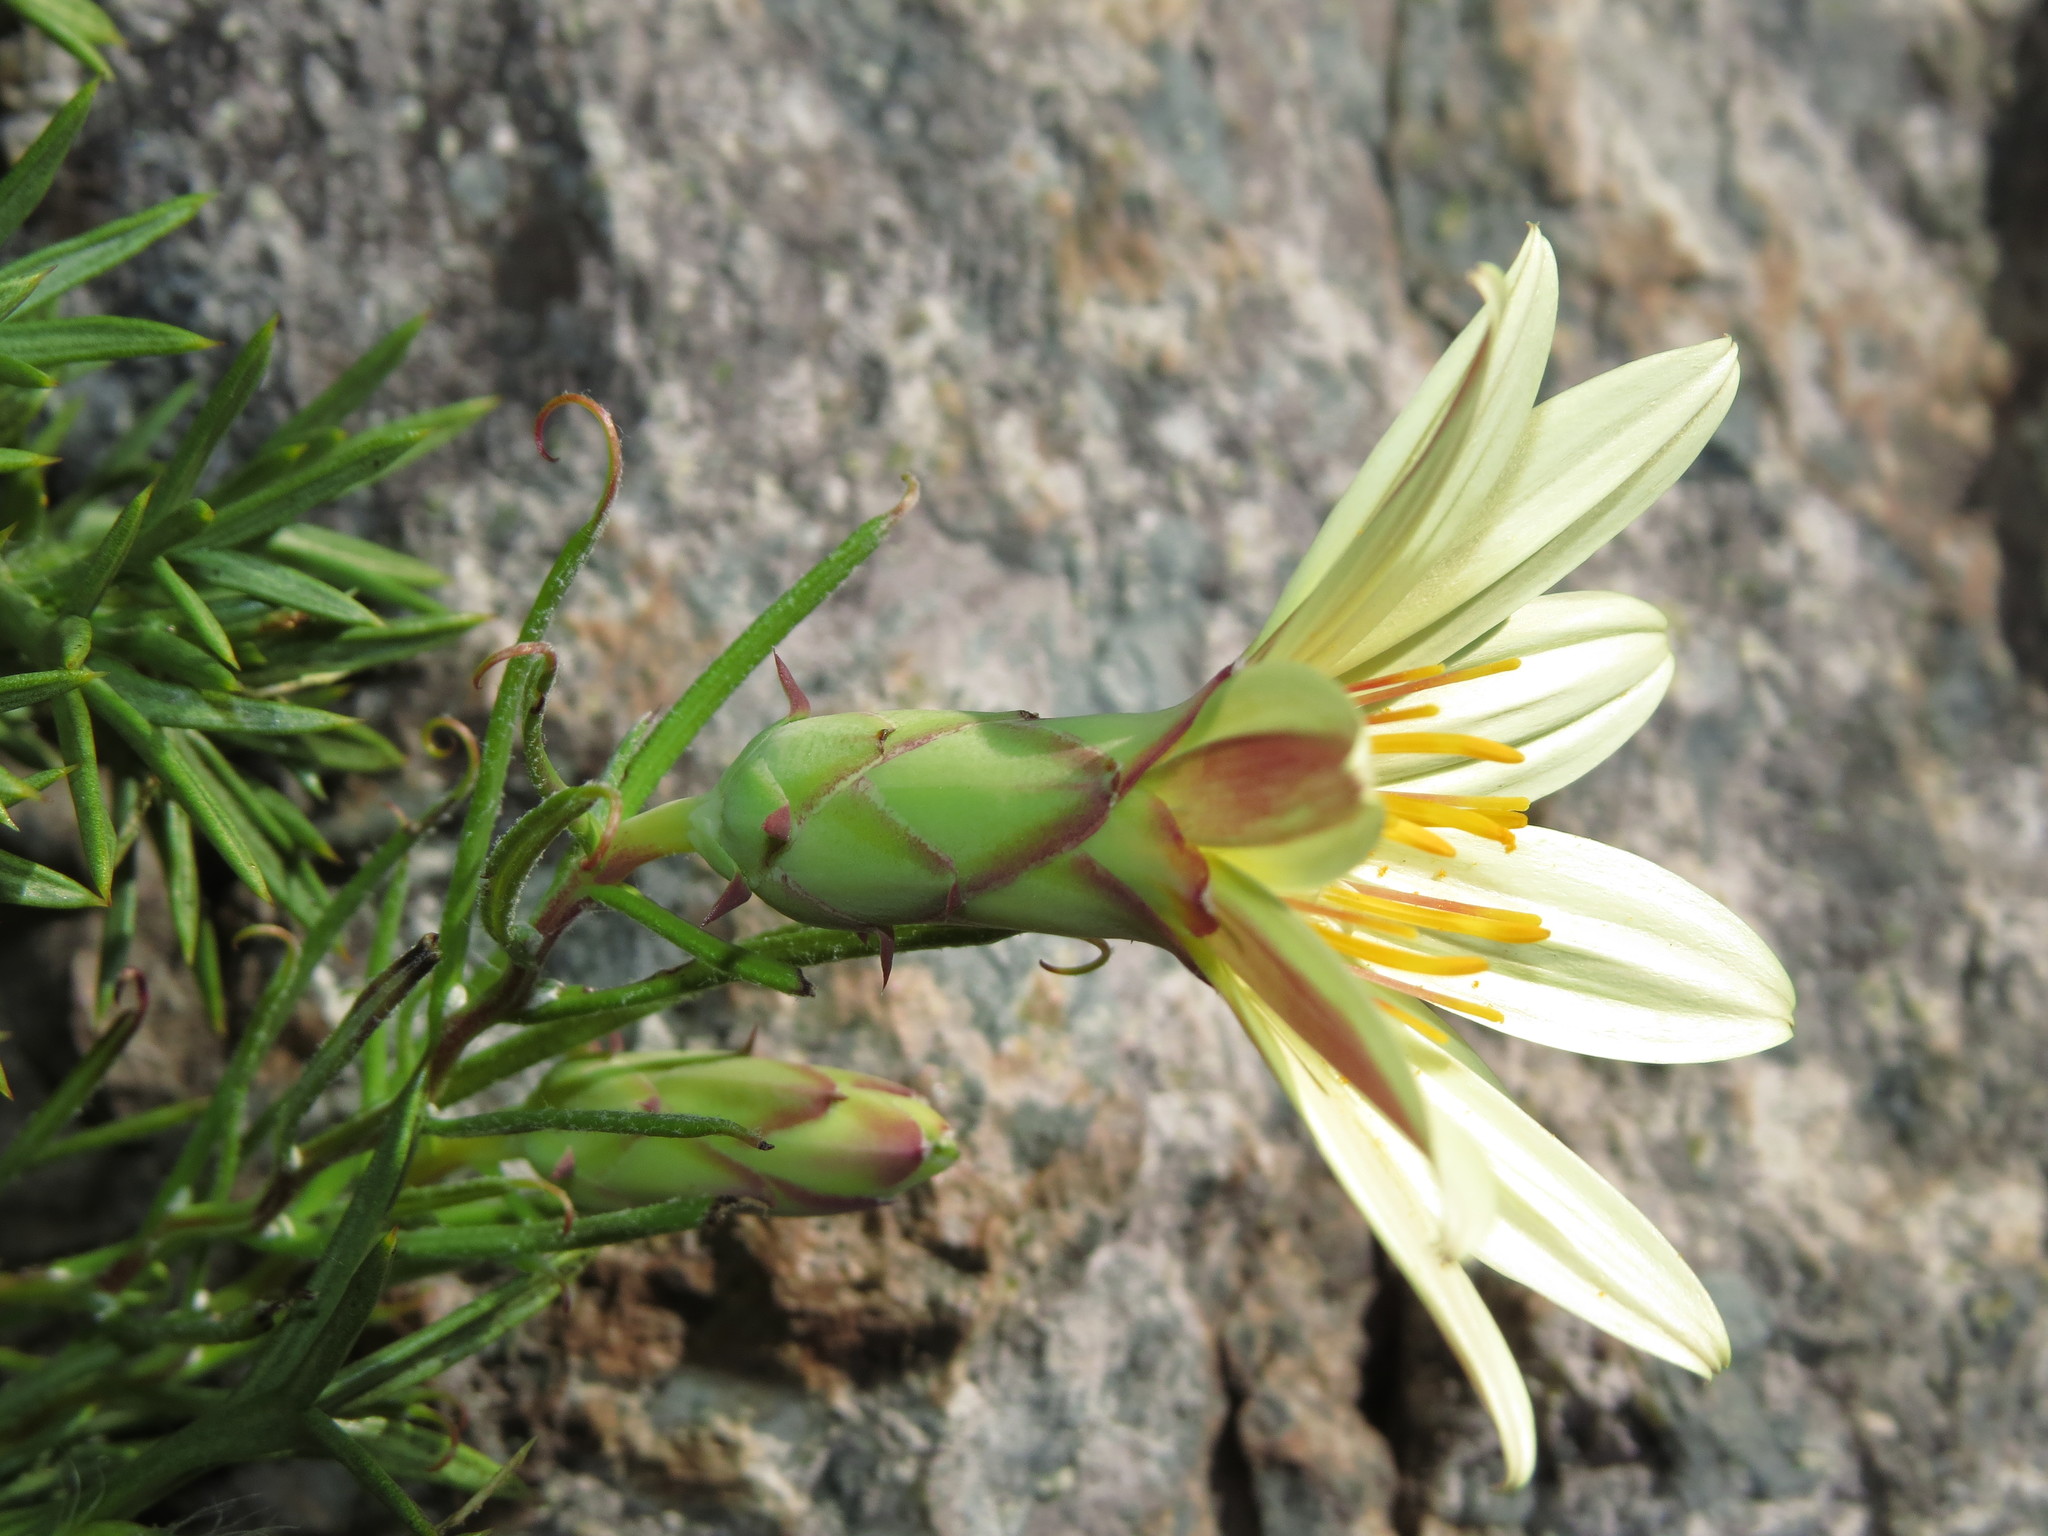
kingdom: Plantae
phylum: Tracheophyta
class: Magnoliopsida
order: Asterales
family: Asteraceae
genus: Mutisia
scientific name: Mutisia rosea
